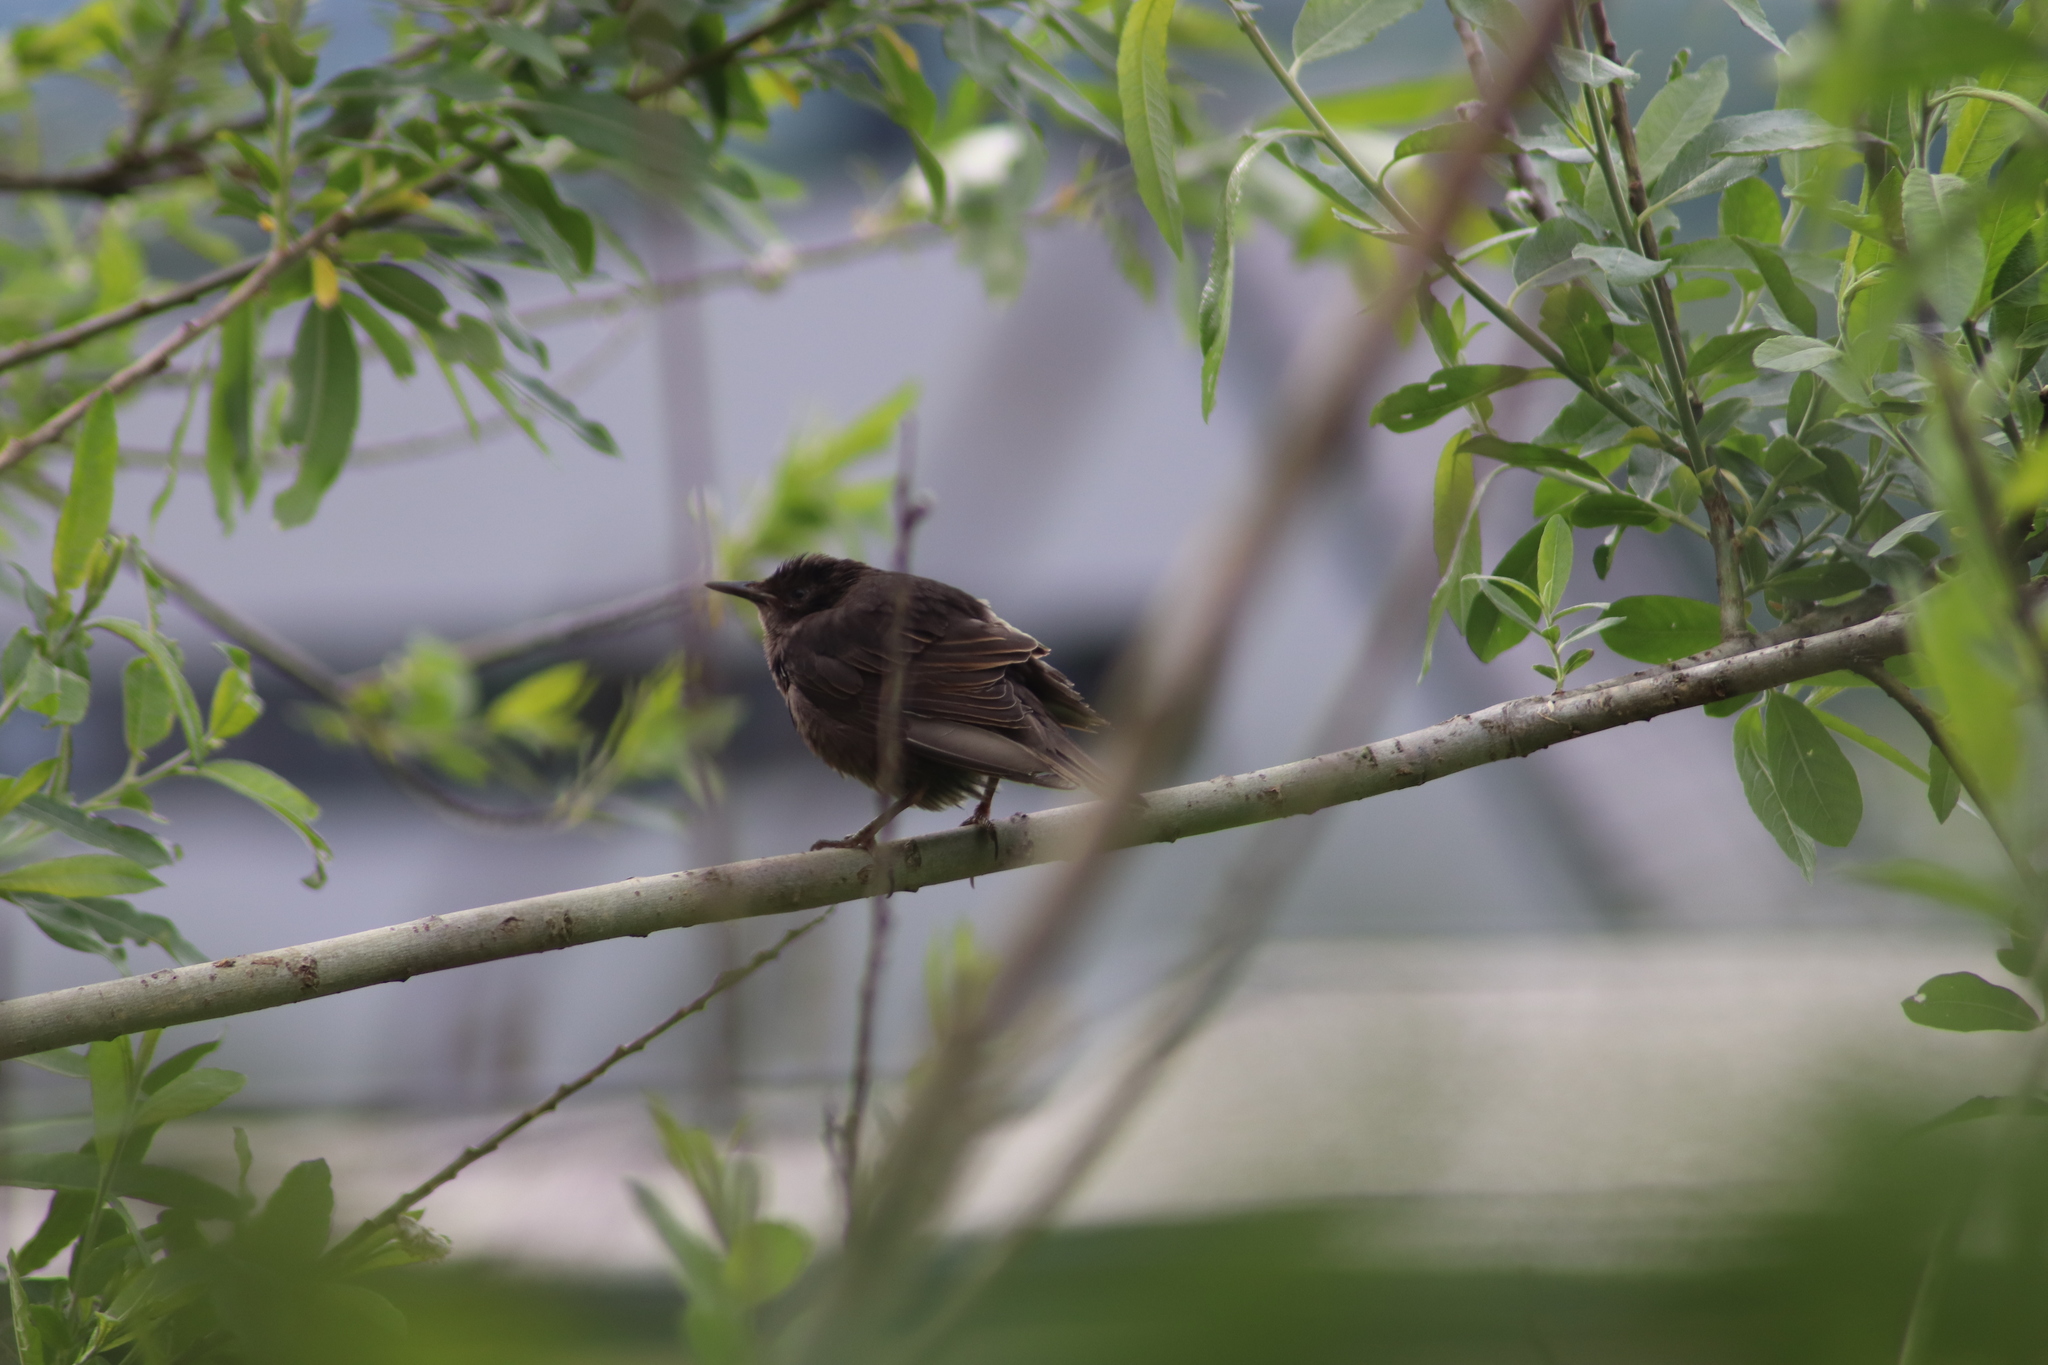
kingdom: Animalia
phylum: Chordata
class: Aves
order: Passeriformes
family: Sturnidae
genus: Sturnus
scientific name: Sturnus vulgaris
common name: Common starling
